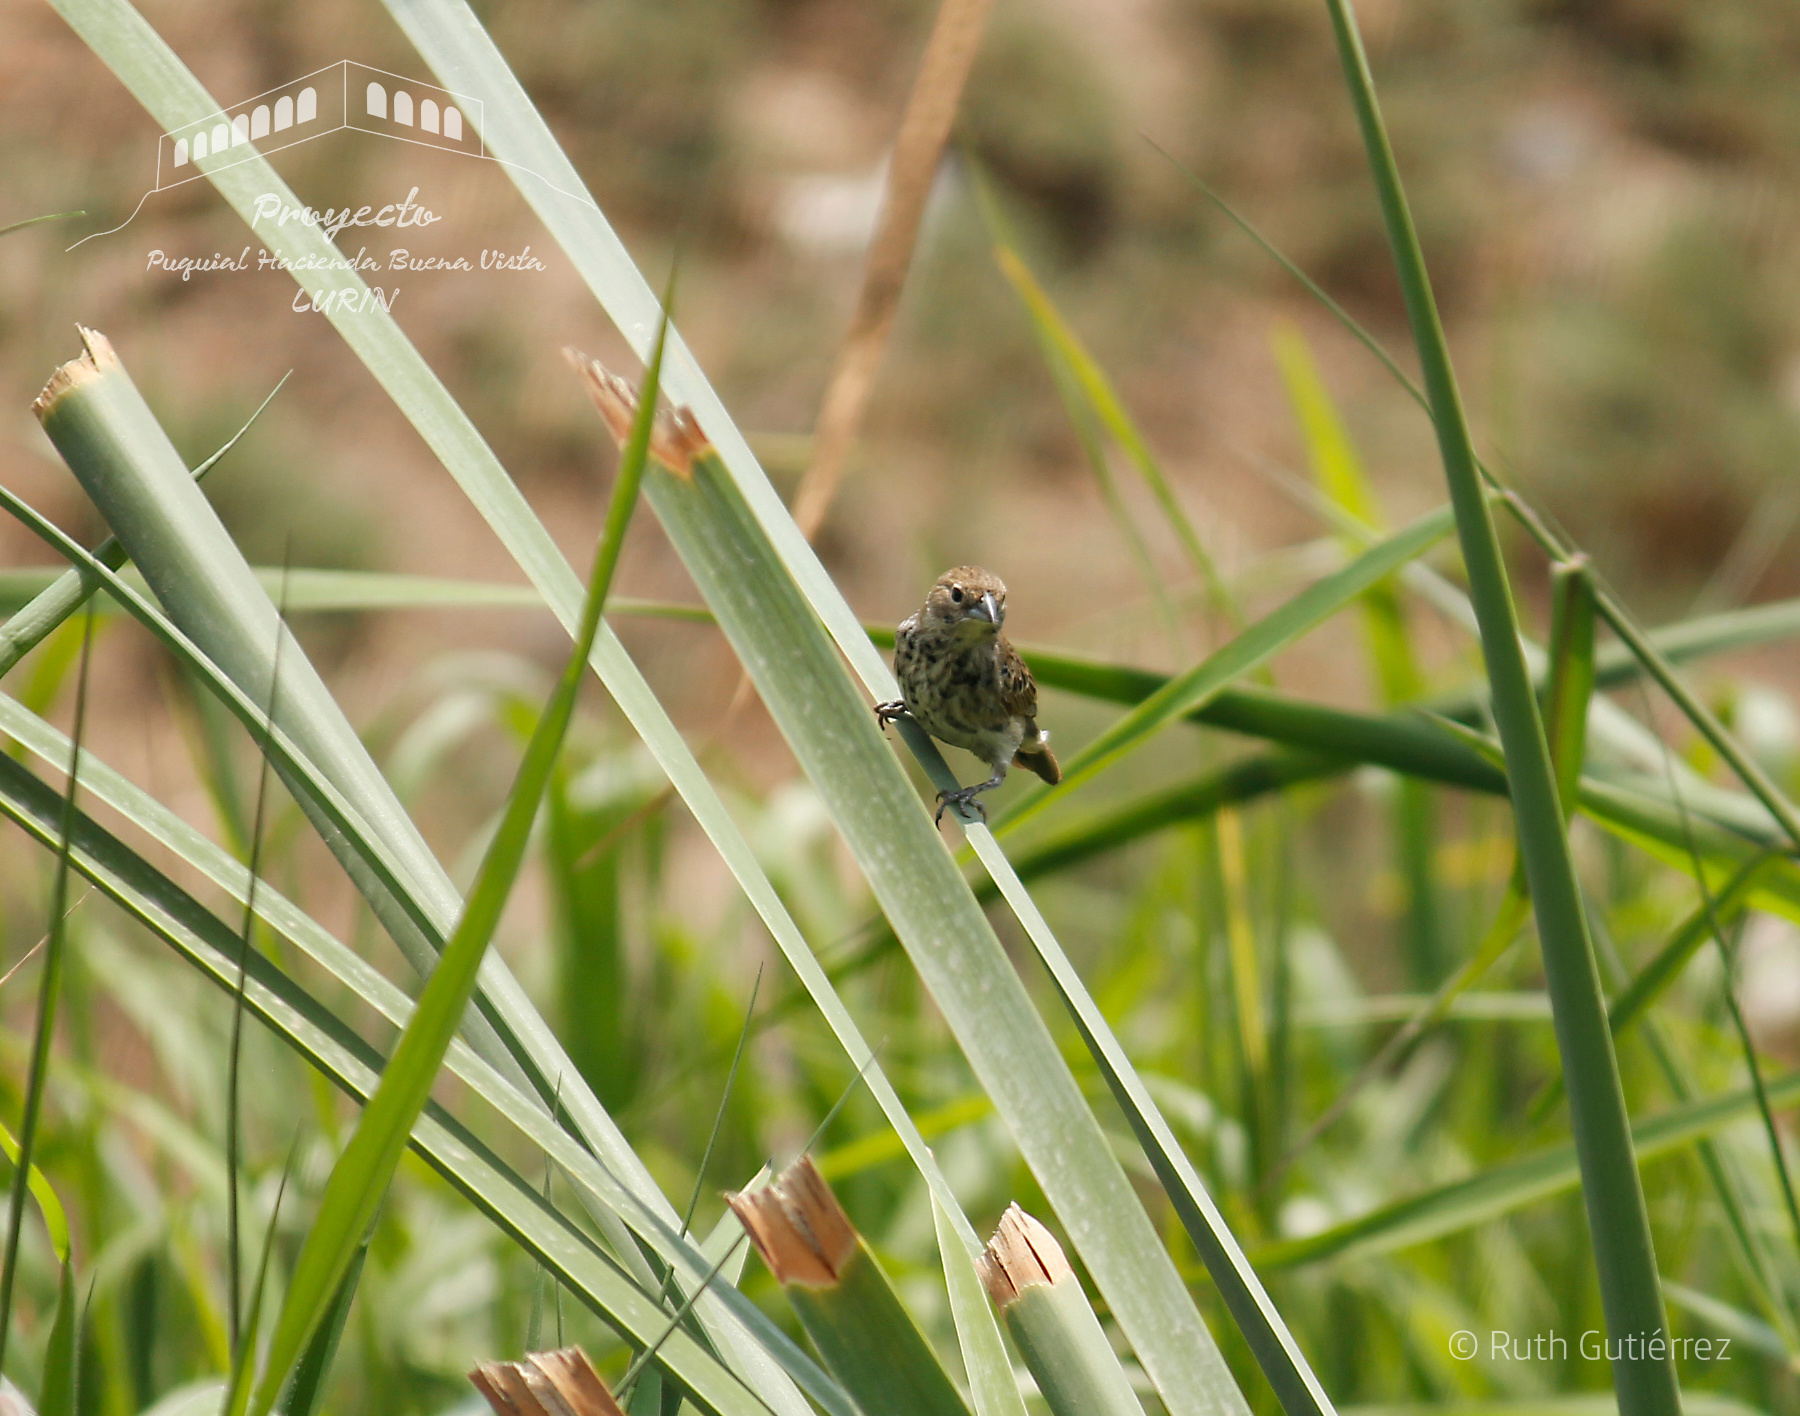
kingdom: Animalia
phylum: Chordata
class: Aves
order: Passeriformes
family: Thraupidae
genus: Volatinia
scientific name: Volatinia jacarina
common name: Blue-black grassquit
